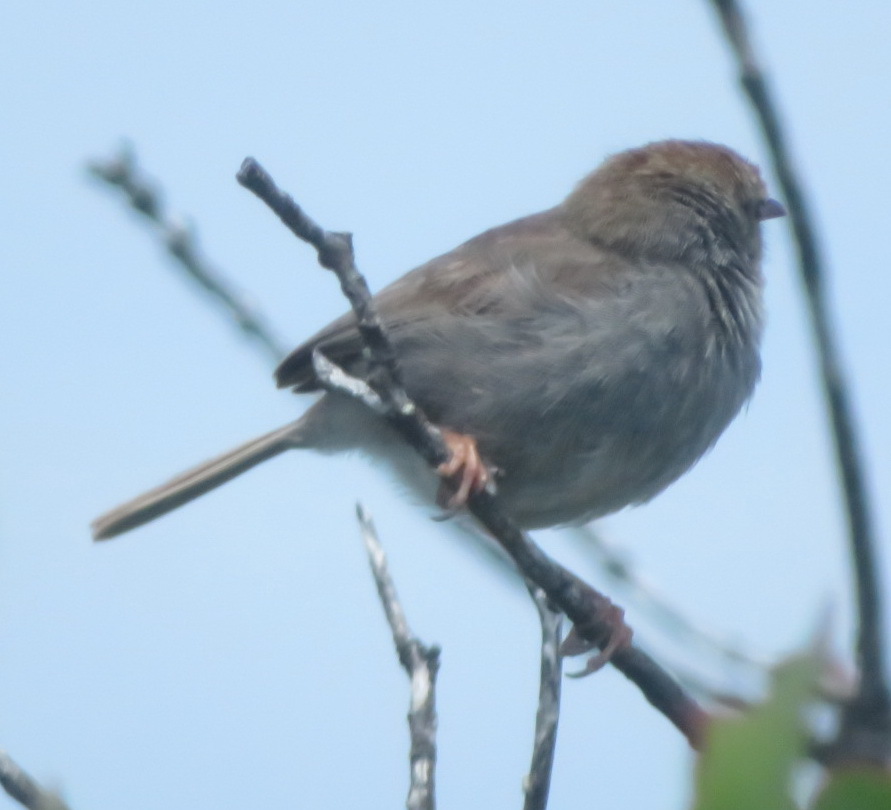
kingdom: Animalia
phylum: Chordata
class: Aves
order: Passeriformes
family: Cisticolidae
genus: Cisticola
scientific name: Cisticola fulvicapilla
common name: Neddicky
